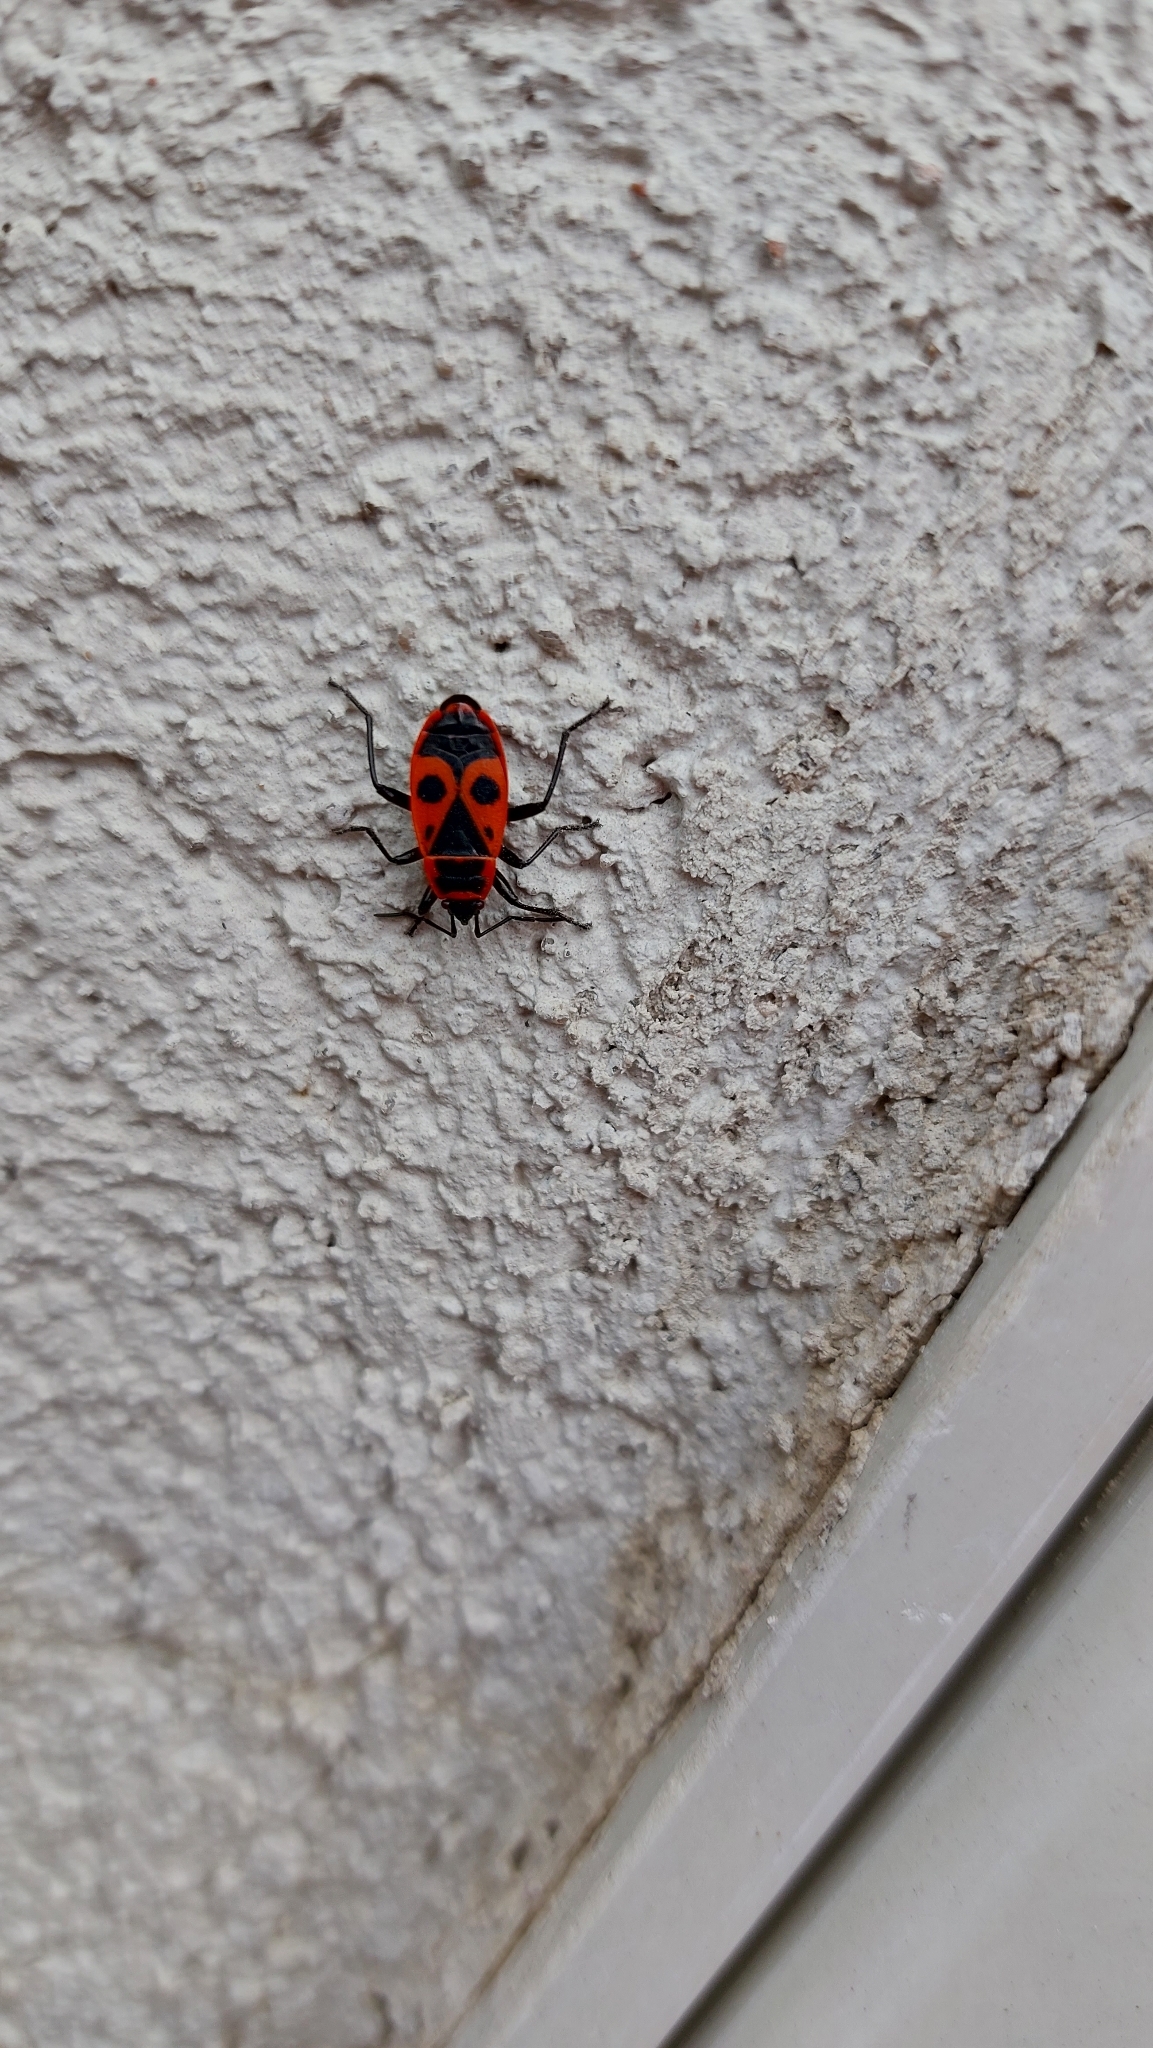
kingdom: Animalia
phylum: Arthropoda
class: Insecta
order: Hemiptera
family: Pyrrhocoridae
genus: Pyrrhocoris
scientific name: Pyrrhocoris apterus
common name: Firebug
